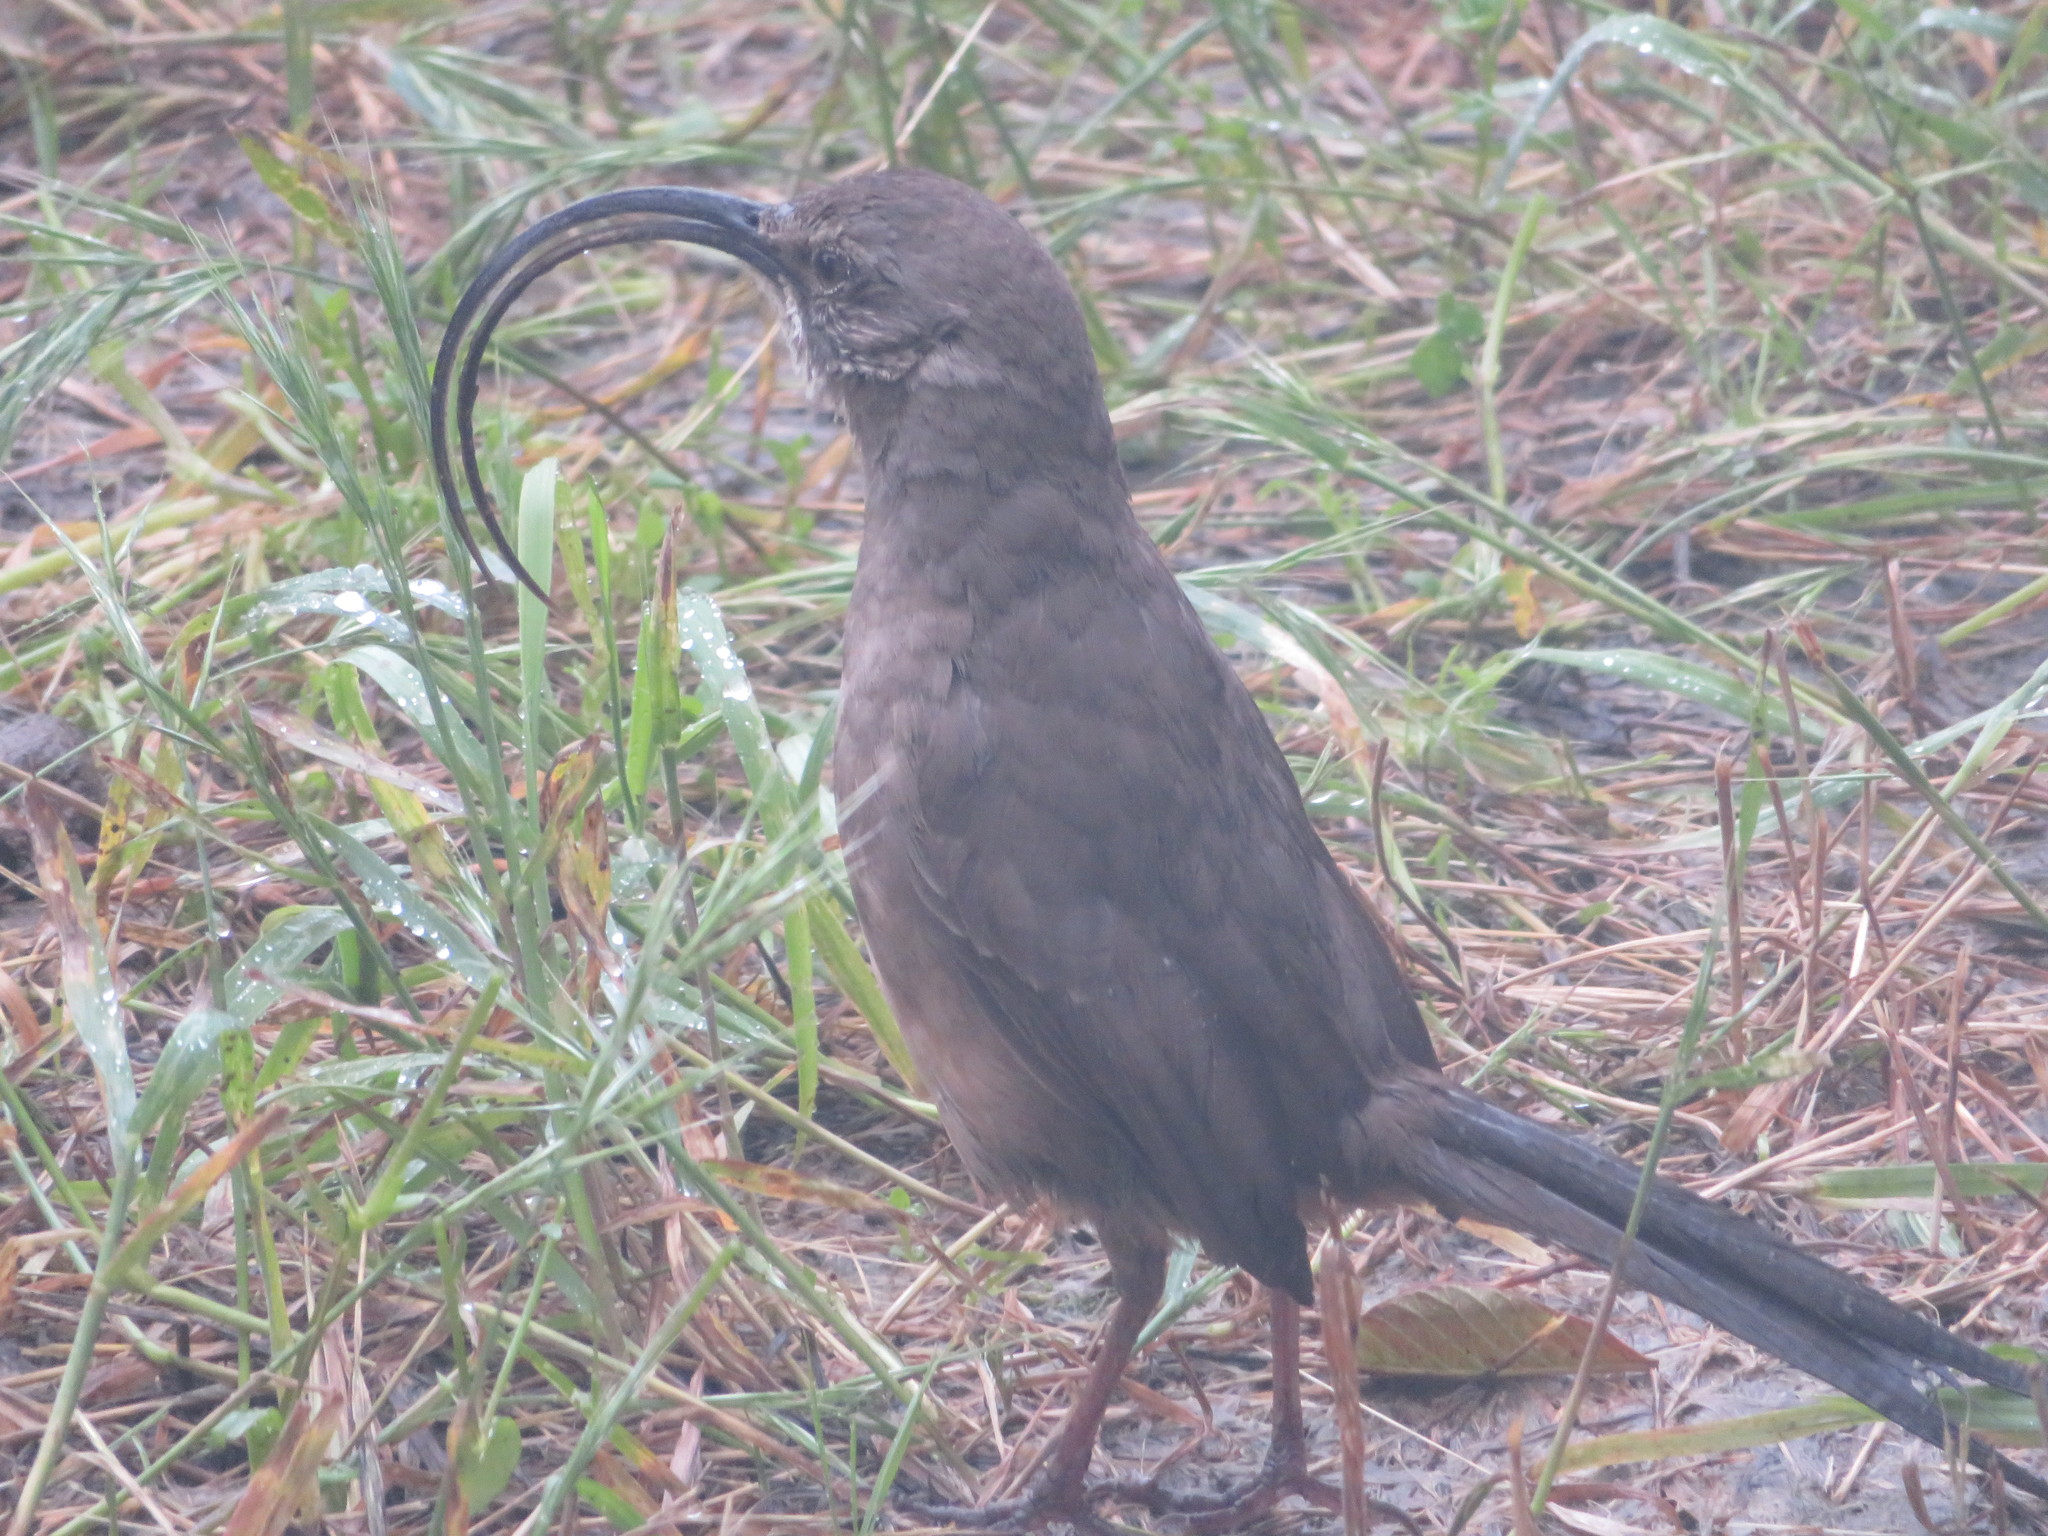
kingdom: Animalia
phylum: Chordata
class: Aves
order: Passeriformes
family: Mimidae
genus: Toxostoma
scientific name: Toxostoma redivivum
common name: California thrasher
